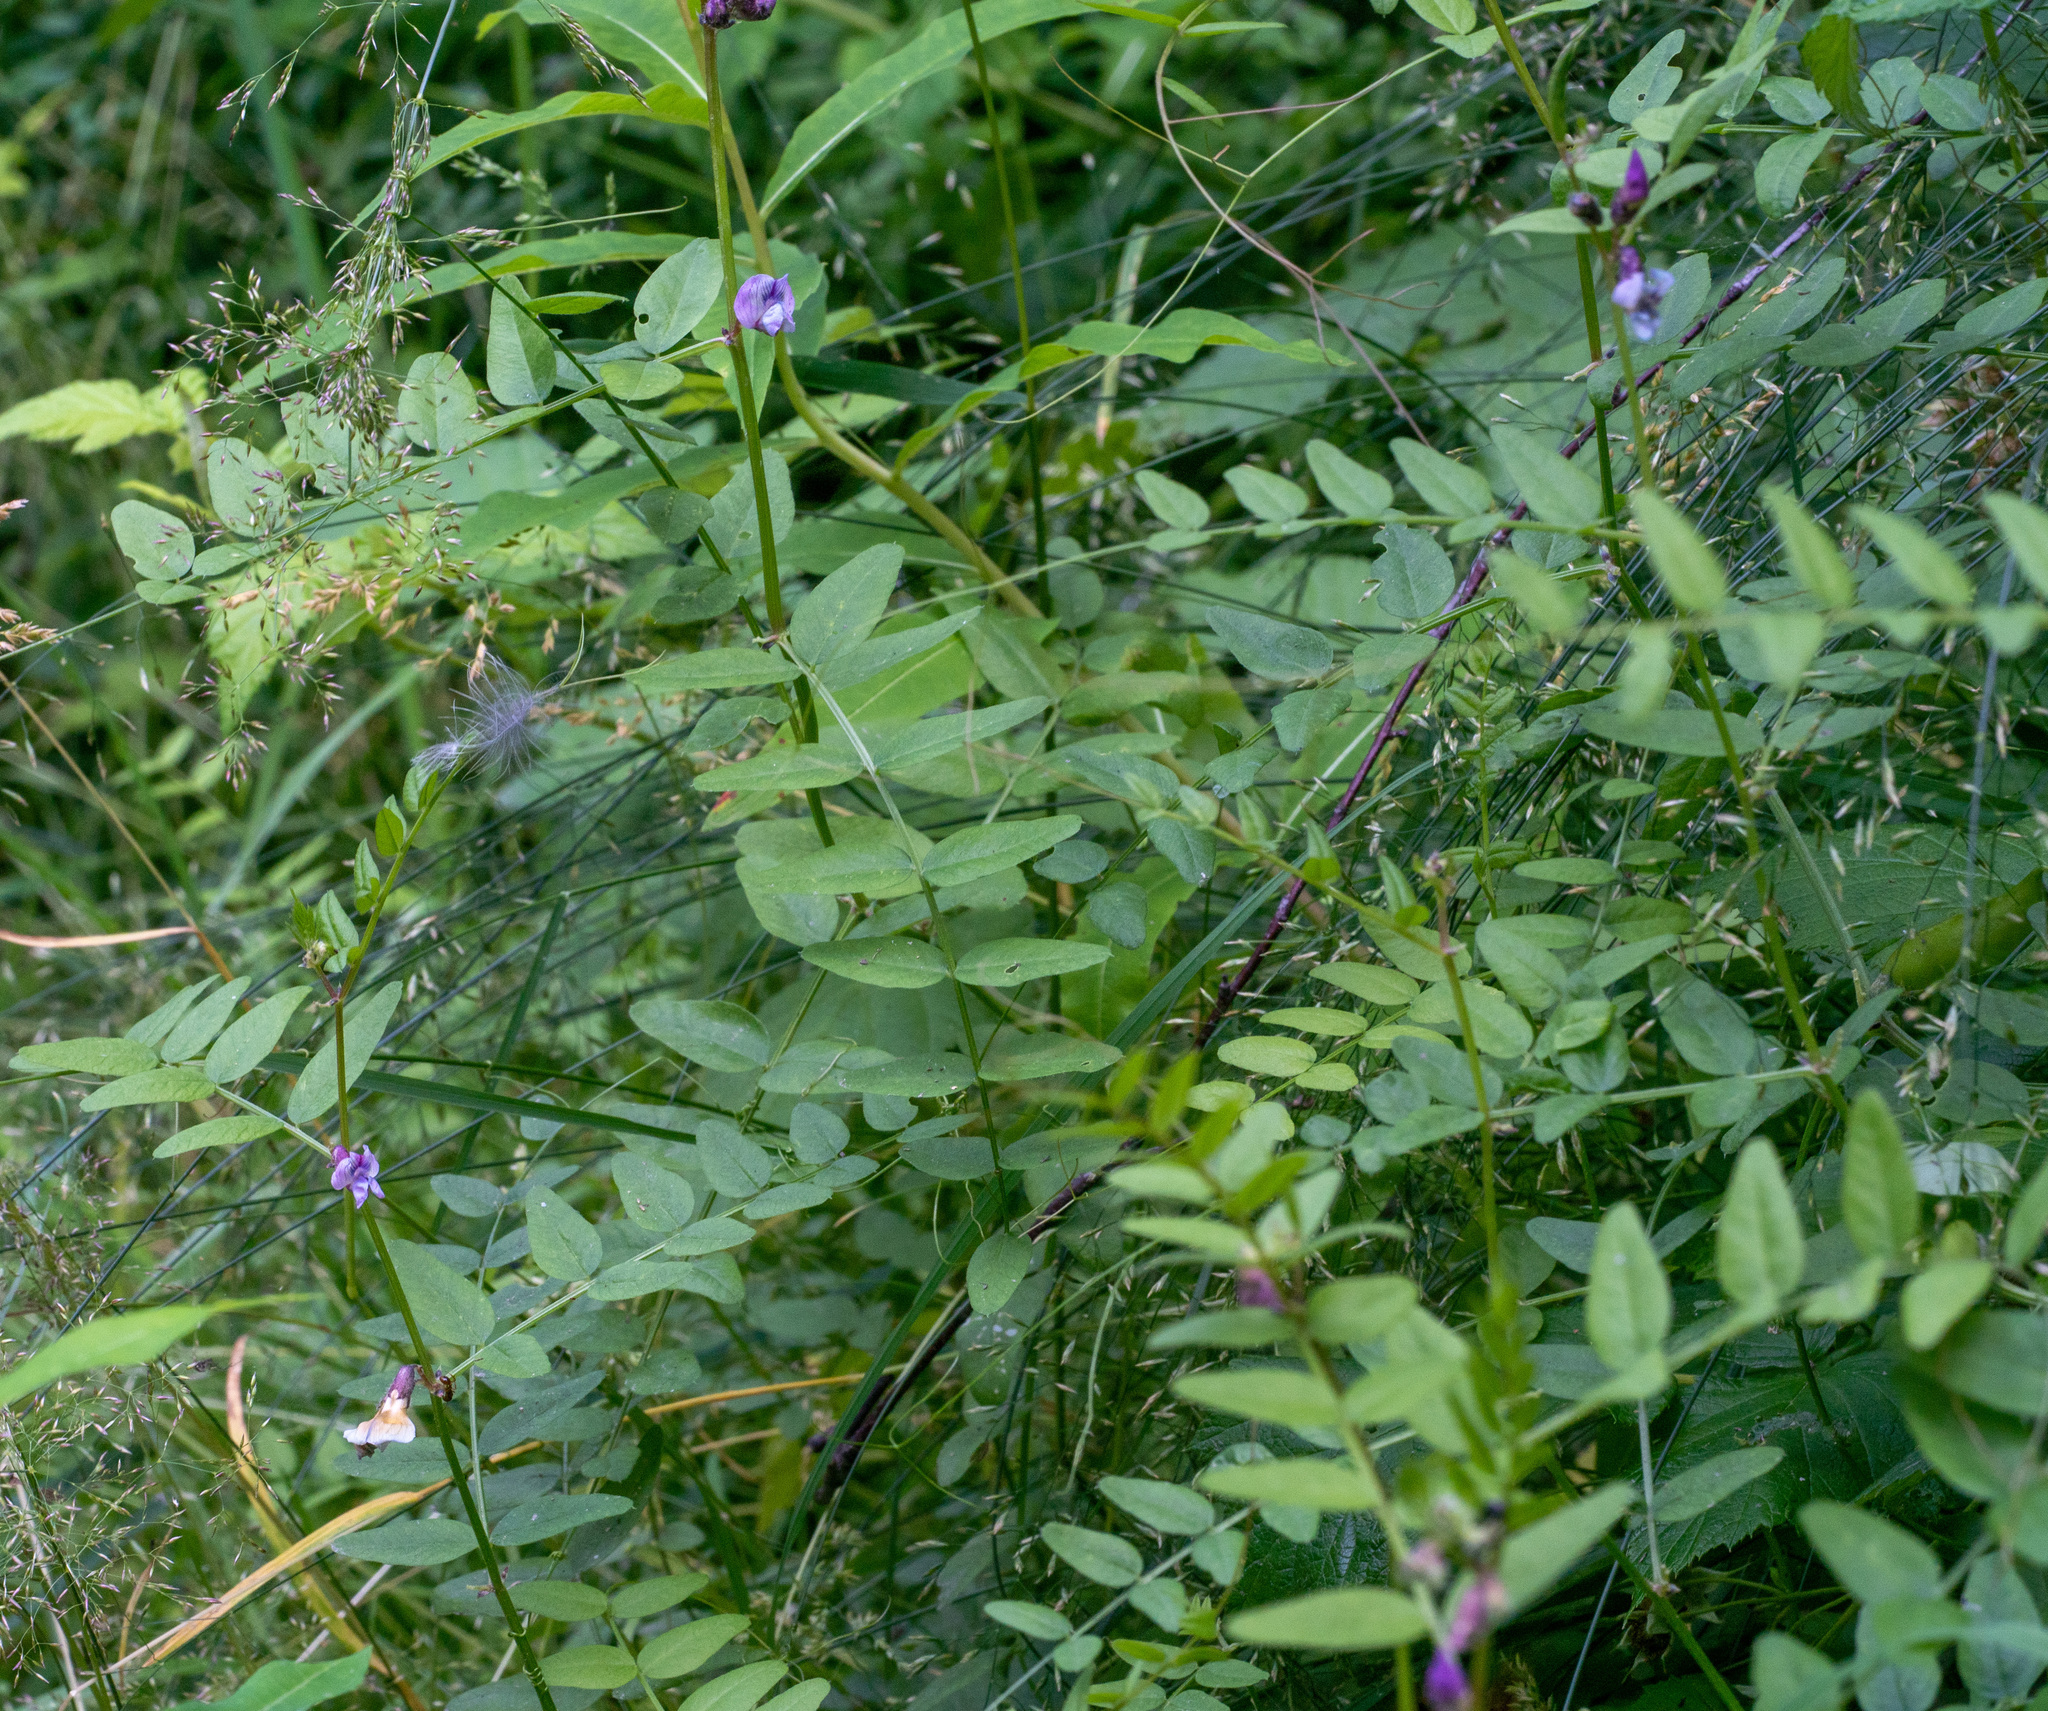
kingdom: Plantae
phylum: Tracheophyta
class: Magnoliopsida
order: Fabales
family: Fabaceae
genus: Vicia
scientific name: Vicia sepium
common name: Bush vetch
